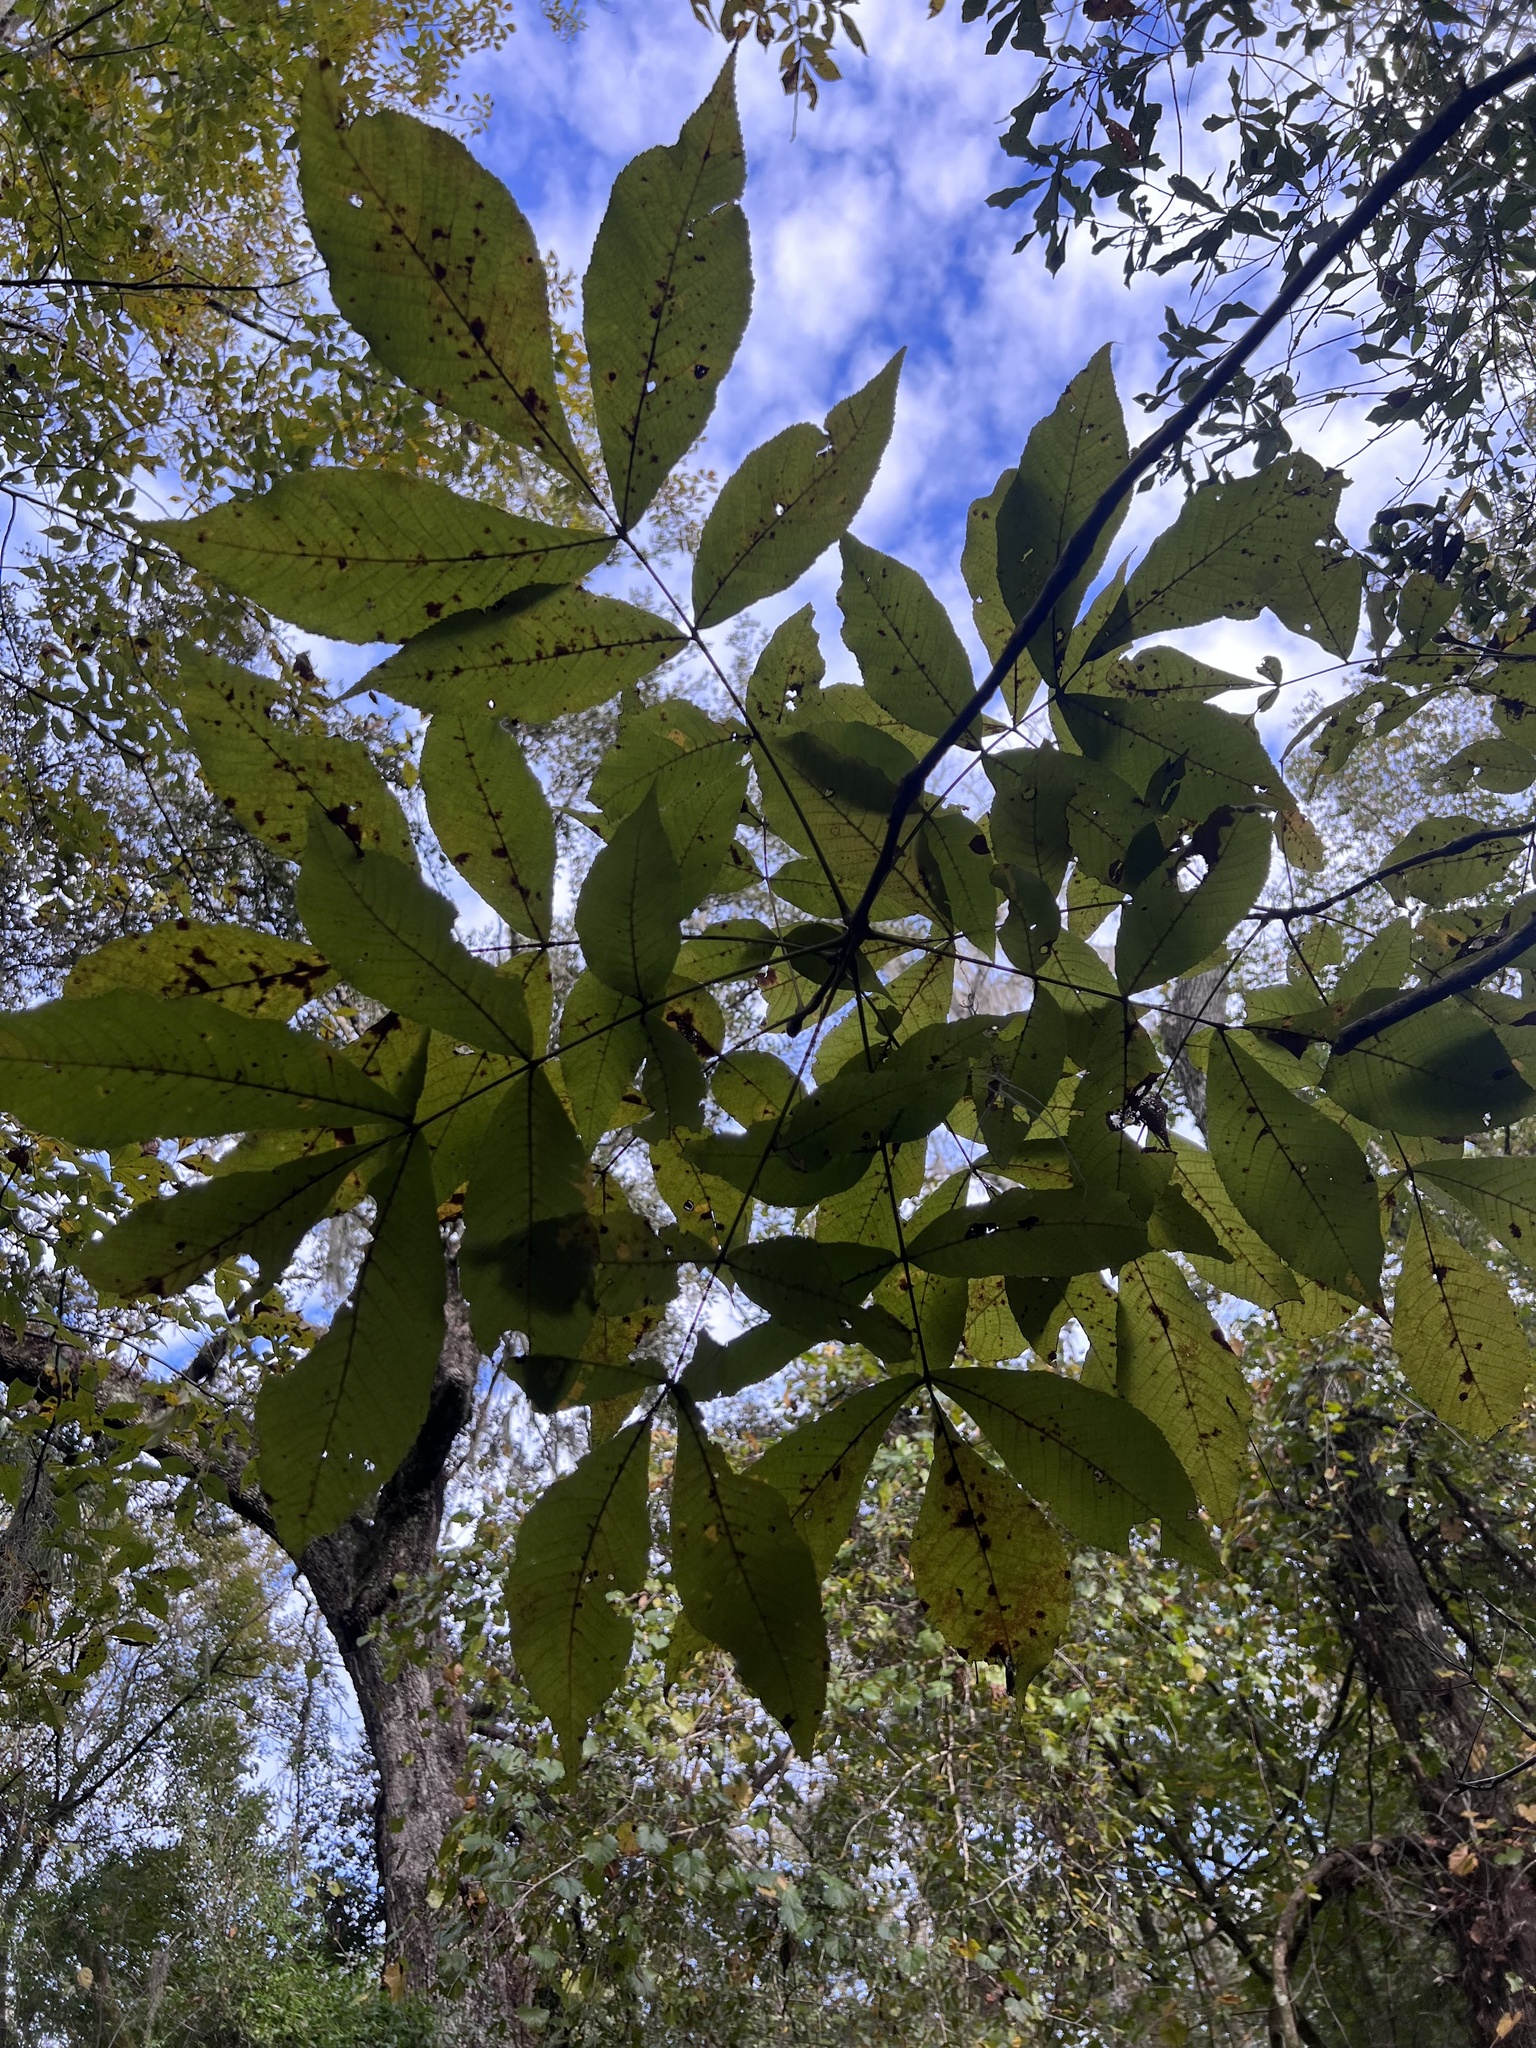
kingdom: Plantae
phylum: Tracheophyta
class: Magnoliopsida
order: Fagales
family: Juglandaceae
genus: Carya
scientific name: Carya glabra
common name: Pignut hickory
